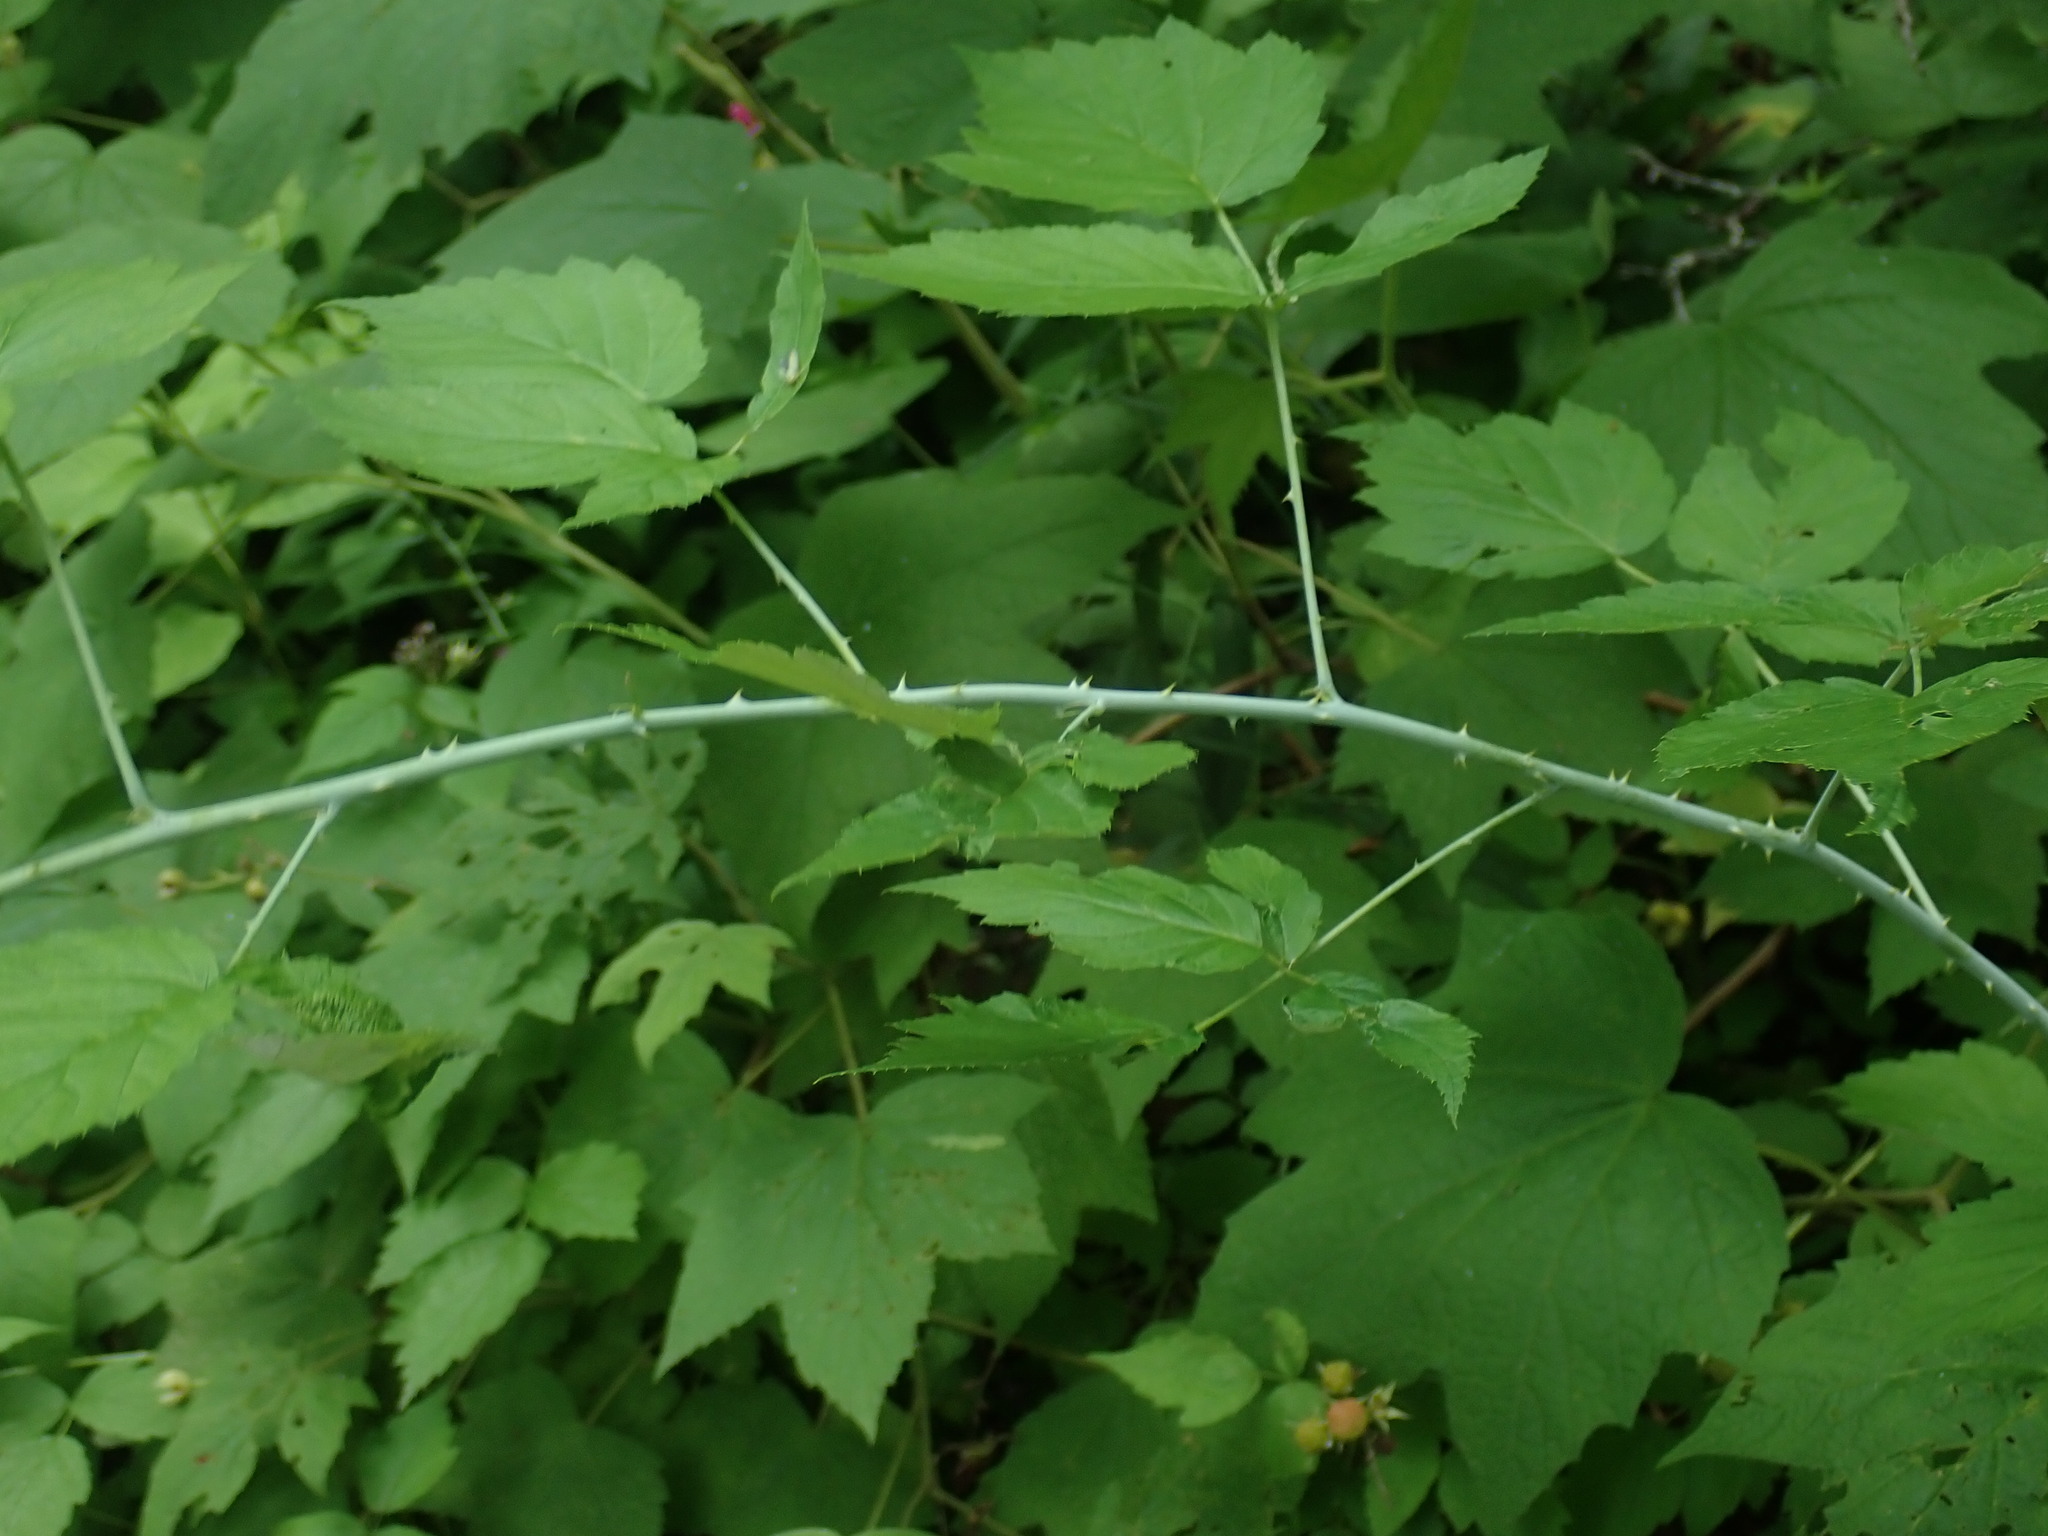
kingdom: Plantae
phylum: Tracheophyta
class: Magnoliopsida
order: Rosales
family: Rosaceae
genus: Rubus
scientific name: Rubus occidentalis
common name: Black raspberry
